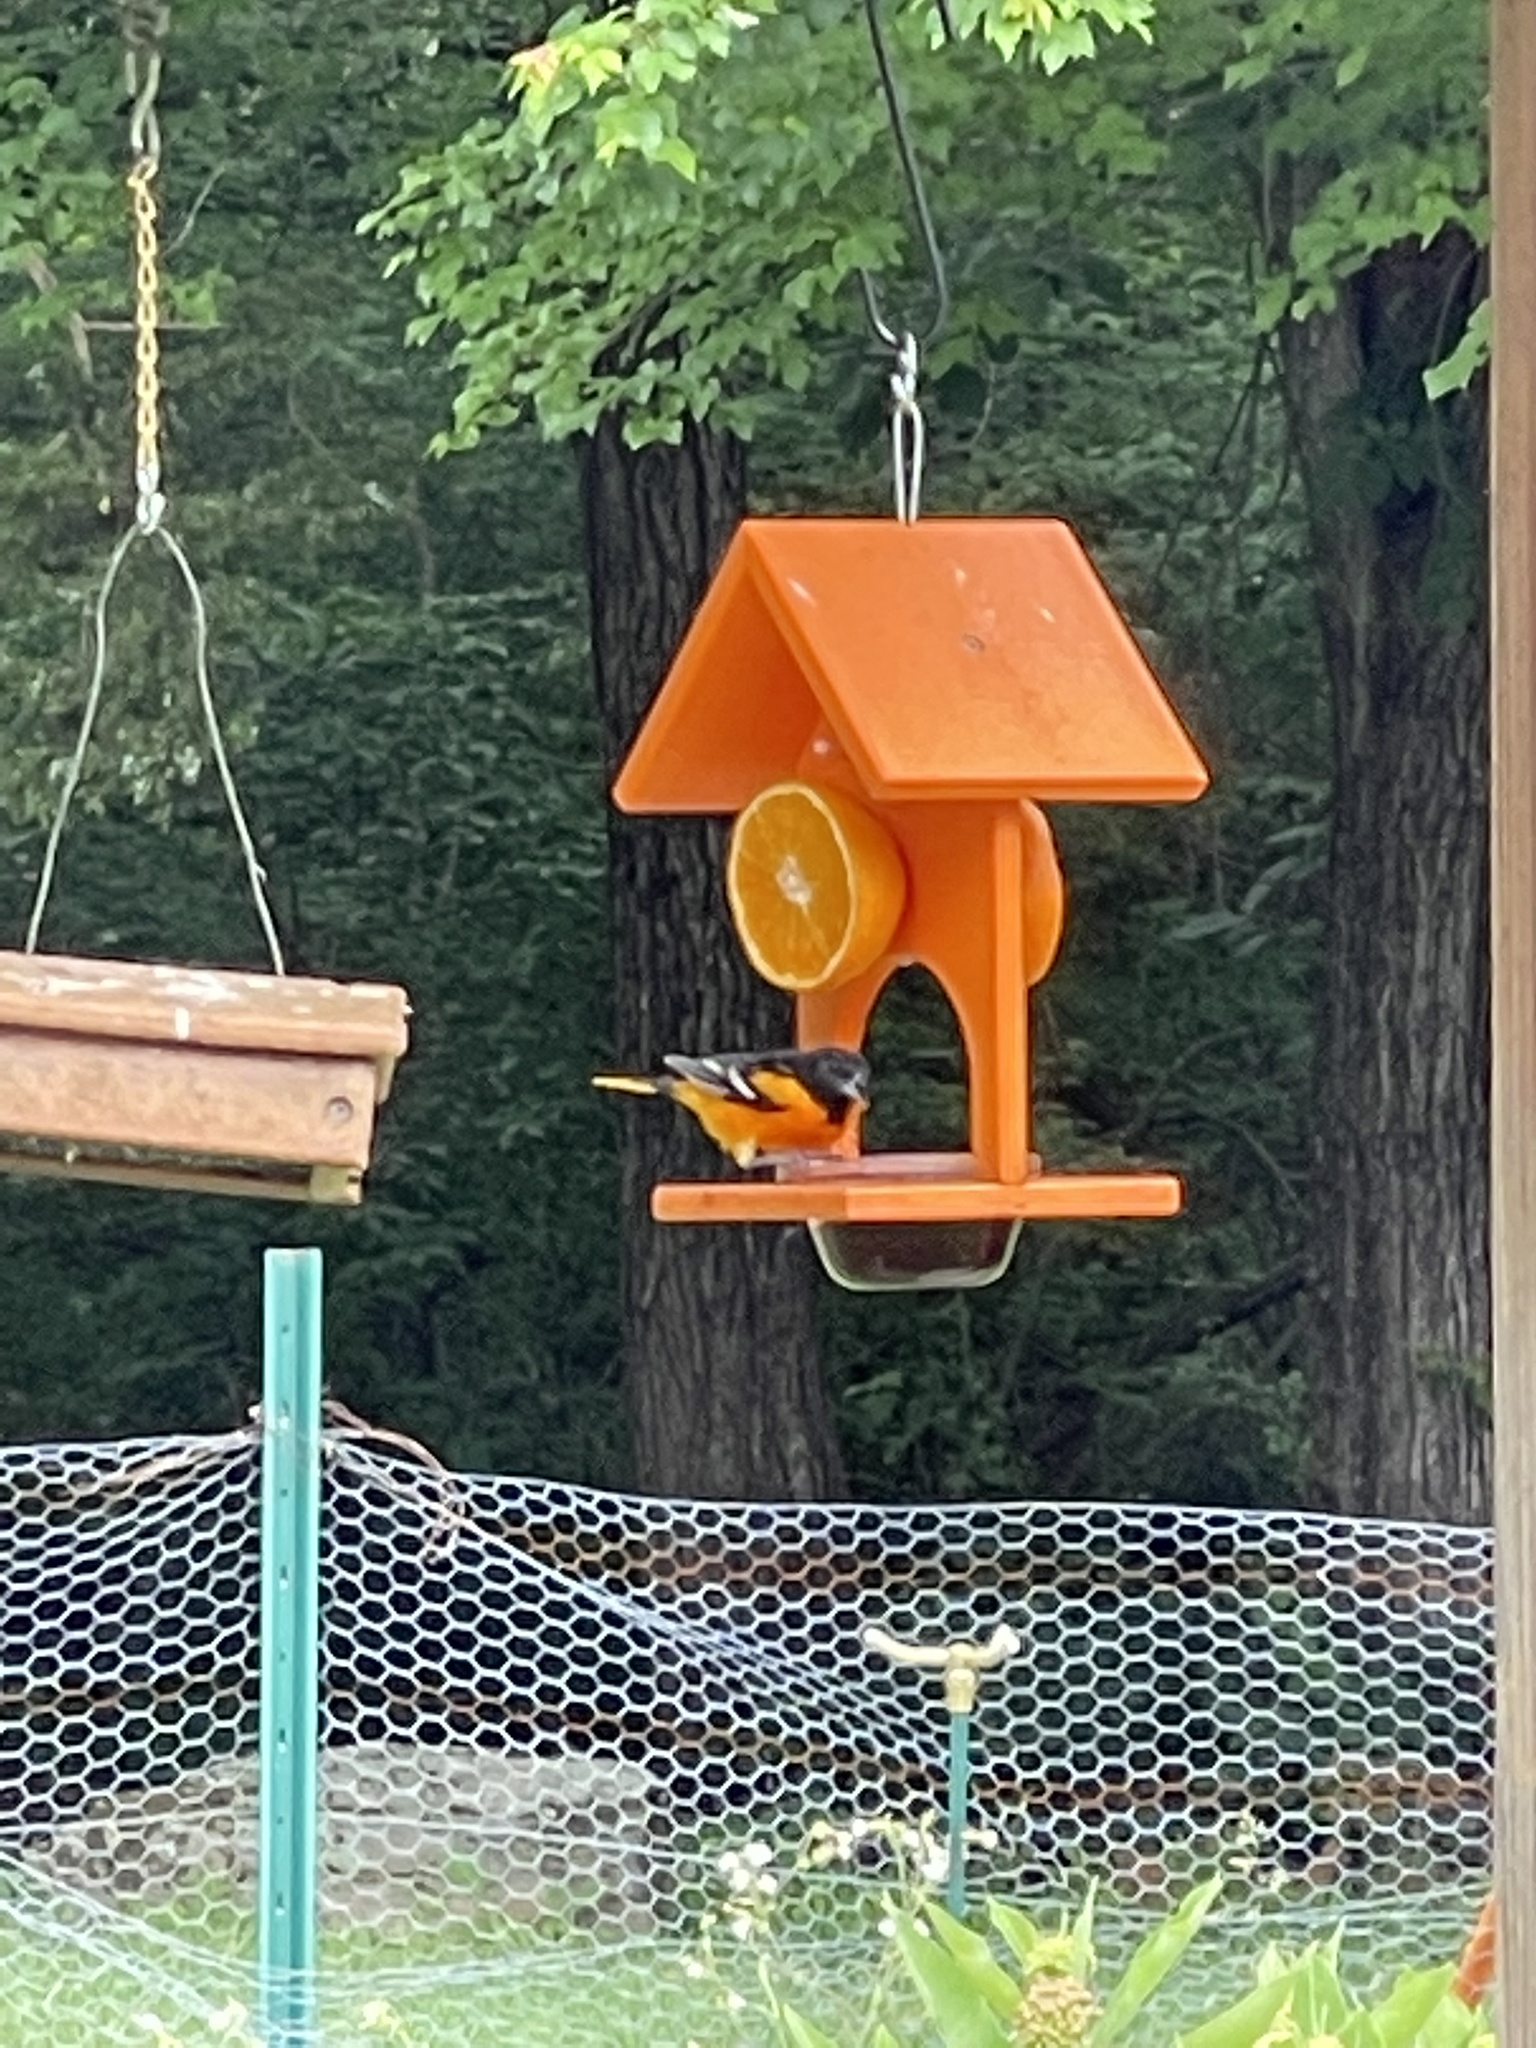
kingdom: Animalia
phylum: Chordata
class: Aves
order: Passeriformes
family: Icteridae
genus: Icterus
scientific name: Icterus galbula
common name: Baltimore oriole
